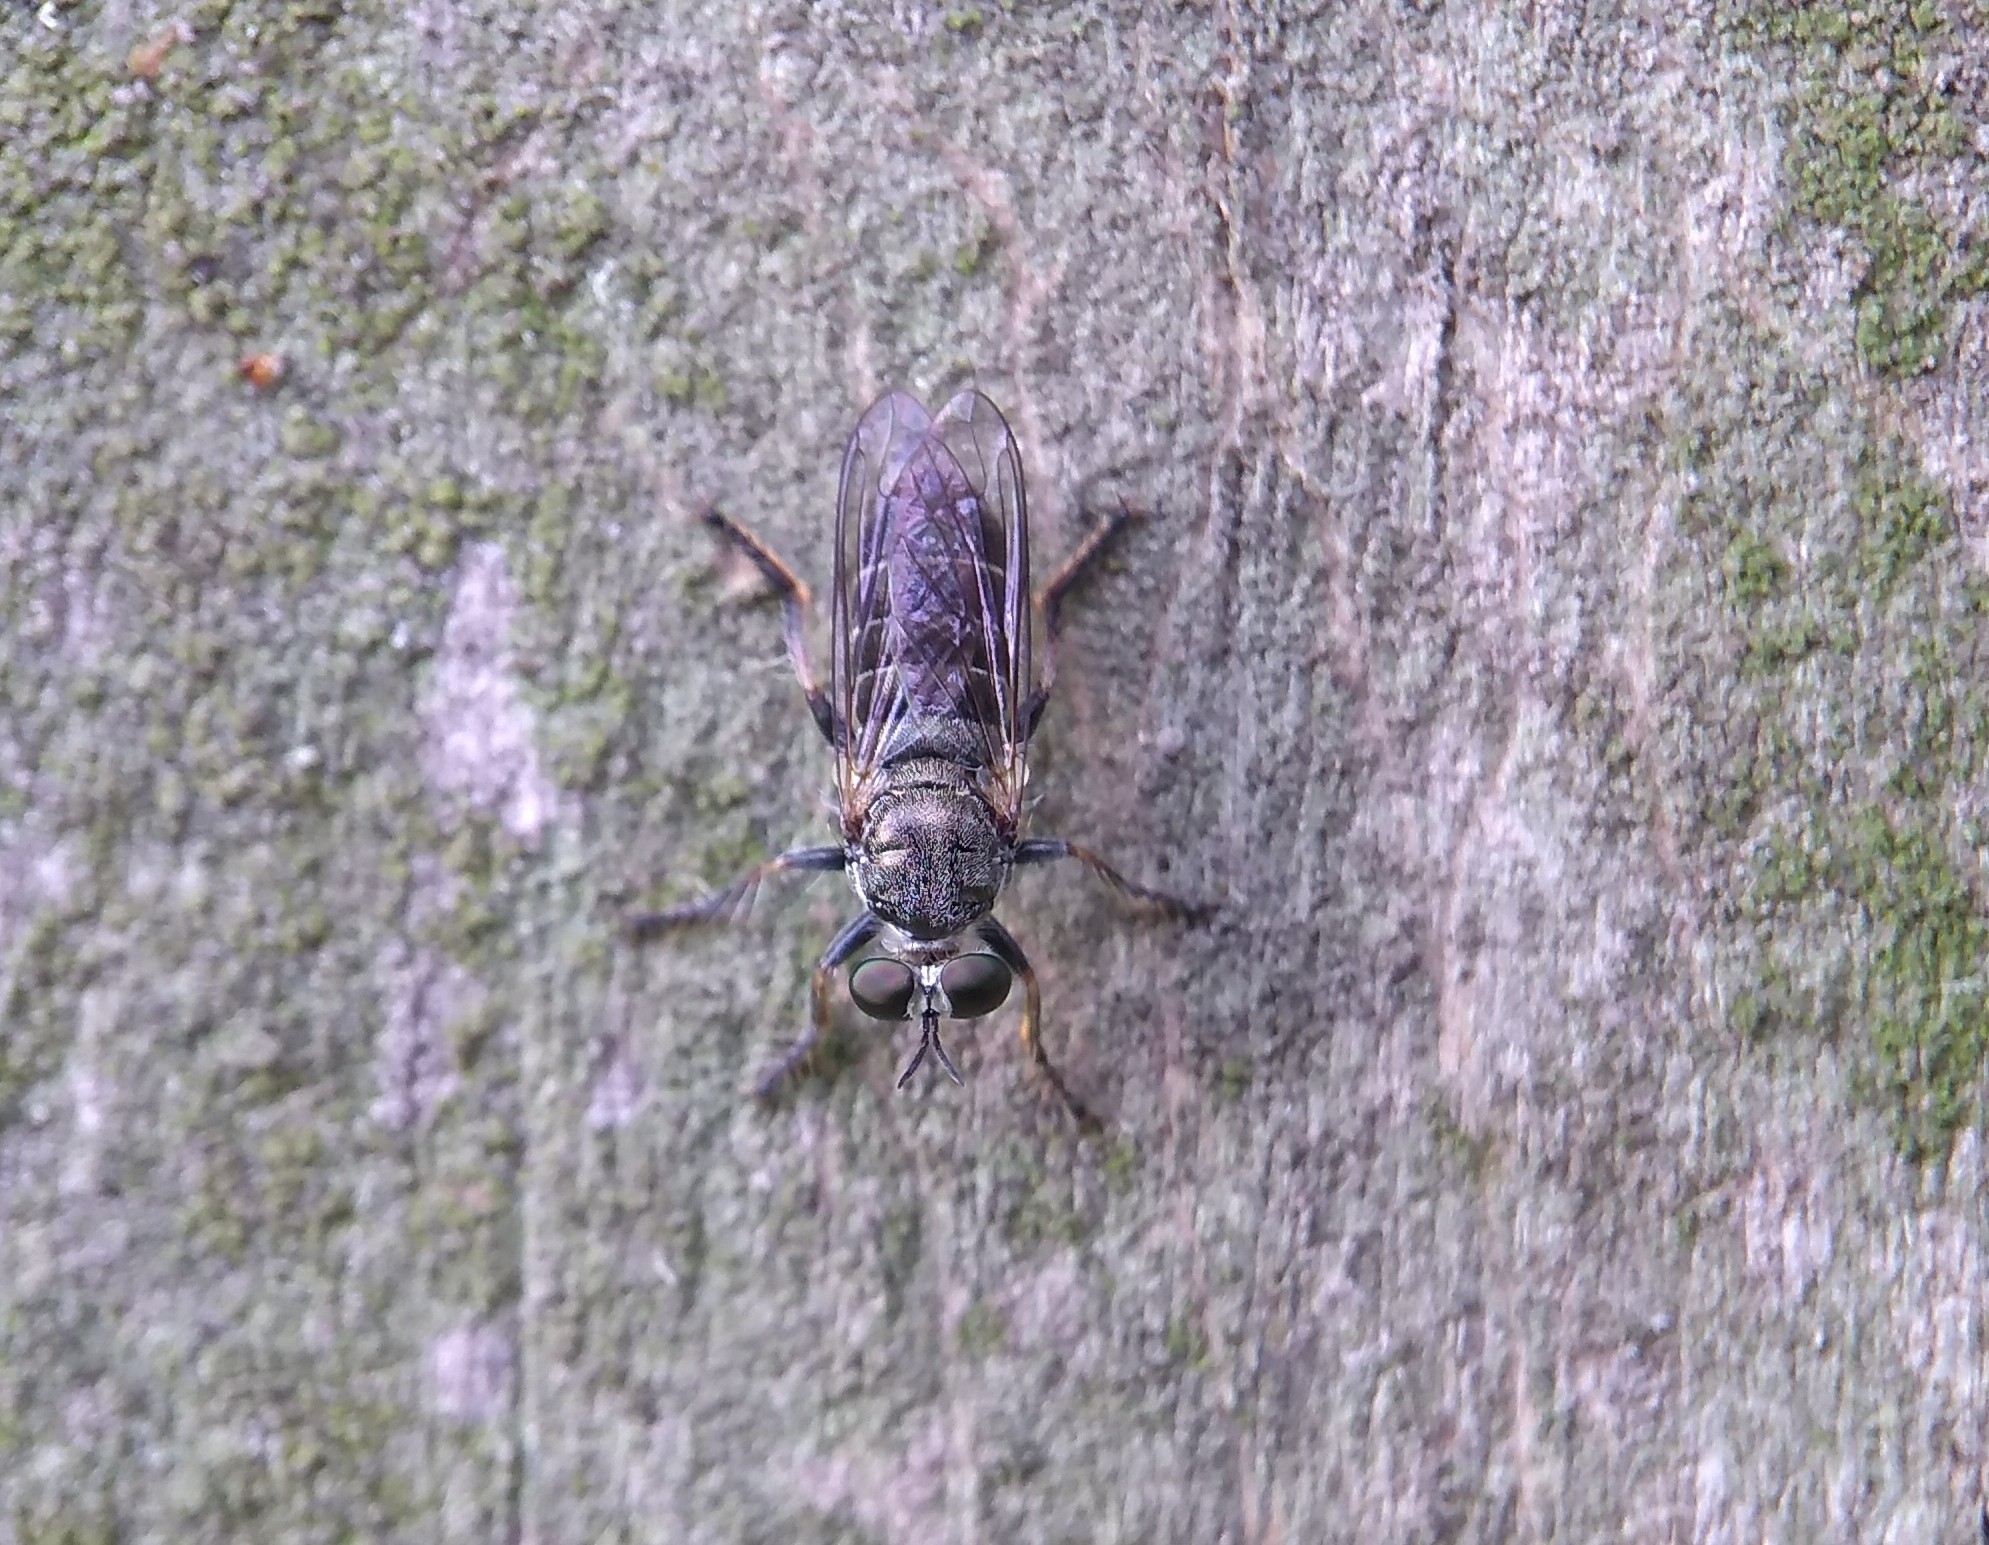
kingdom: Animalia
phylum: Arthropoda
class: Insecta
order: Diptera
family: Asilidae
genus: Atomosia
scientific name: Atomosia puella
